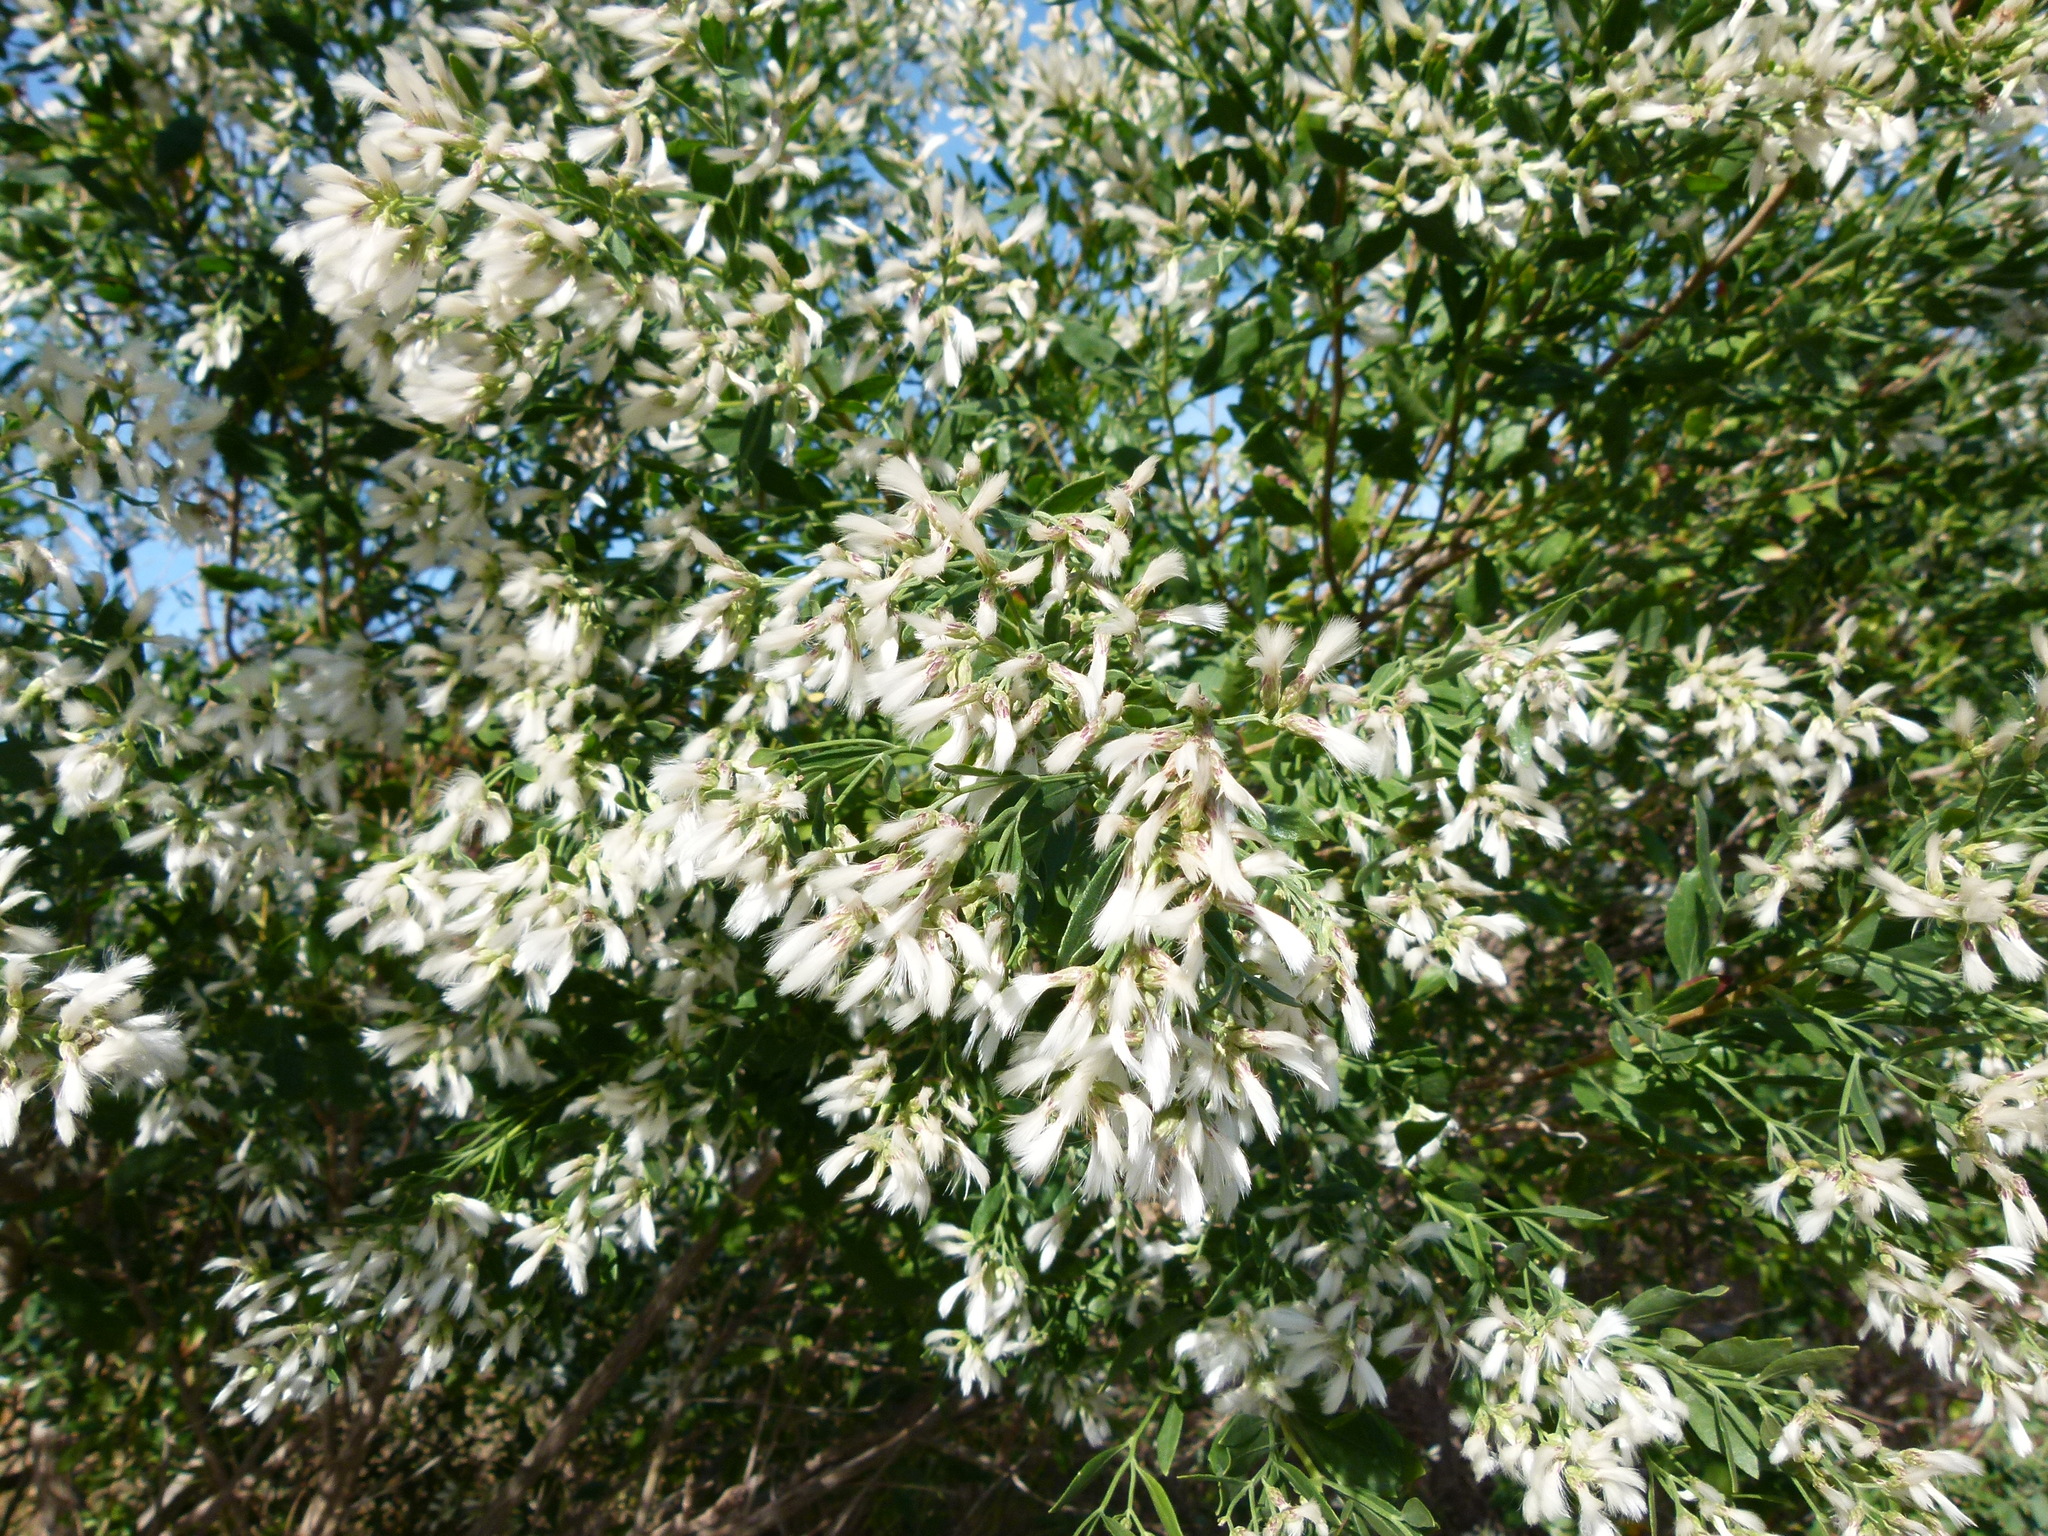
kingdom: Plantae
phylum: Tracheophyta
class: Magnoliopsida
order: Asterales
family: Asteraceae
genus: Baccharis
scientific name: Baccharis halimifolia
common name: Eastern baccharis
